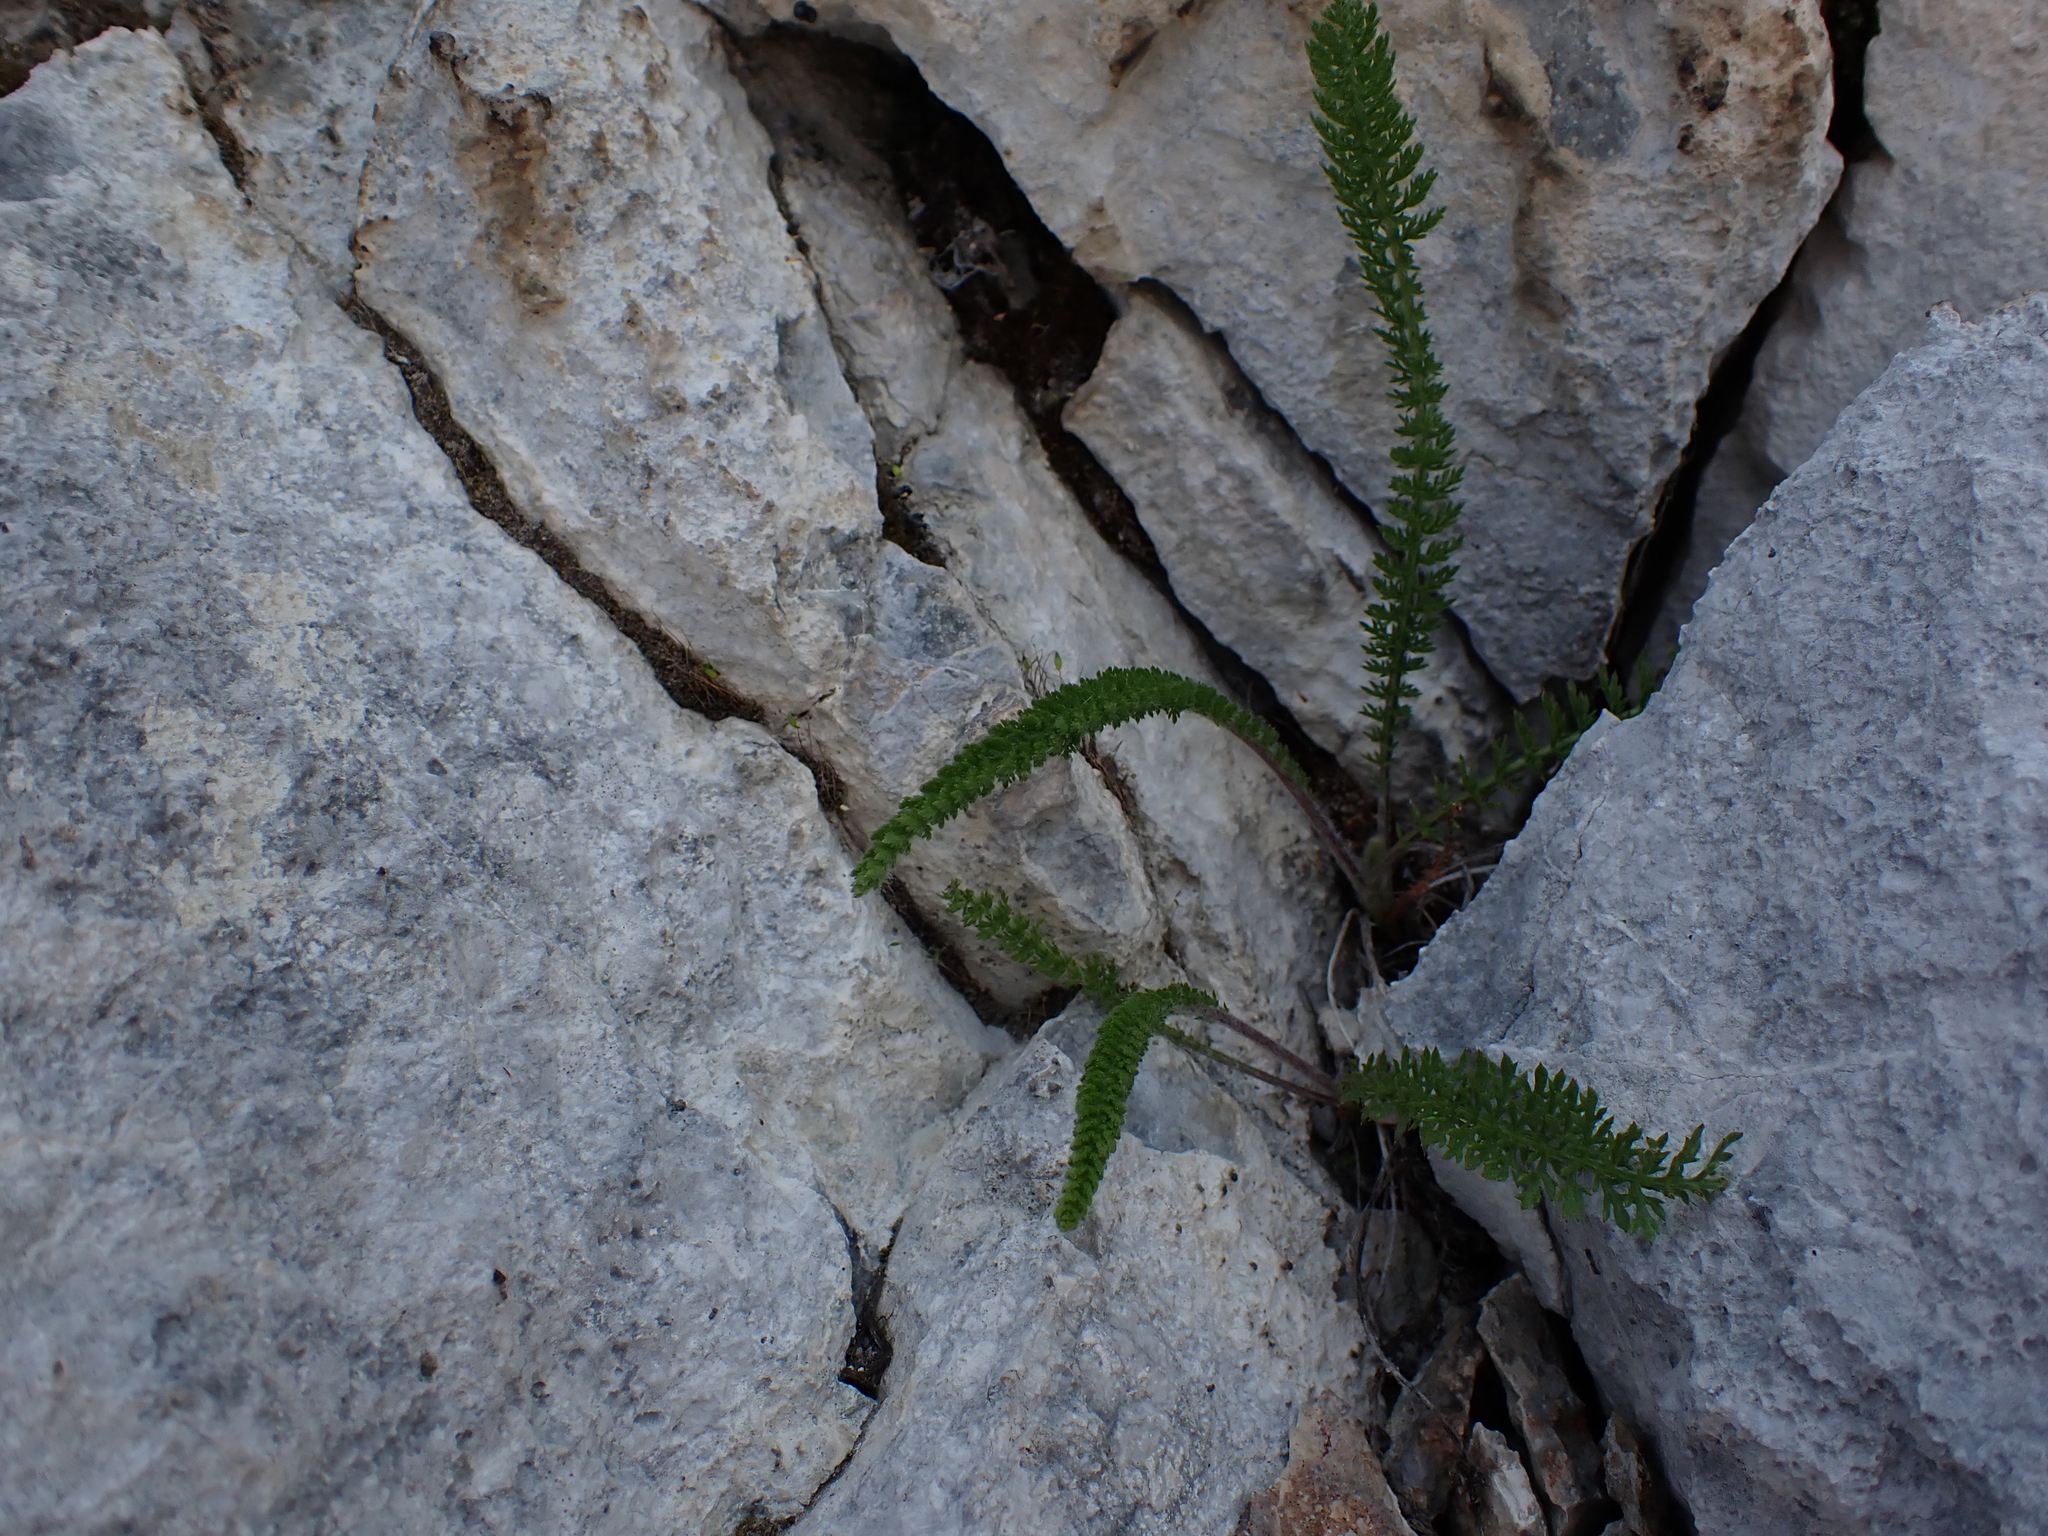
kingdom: Plantae
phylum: Tracheophyta
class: Magnoliopsida
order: Asterales
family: Asteraceae
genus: Achillea
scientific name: Achillea millefolium
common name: Yarrow
